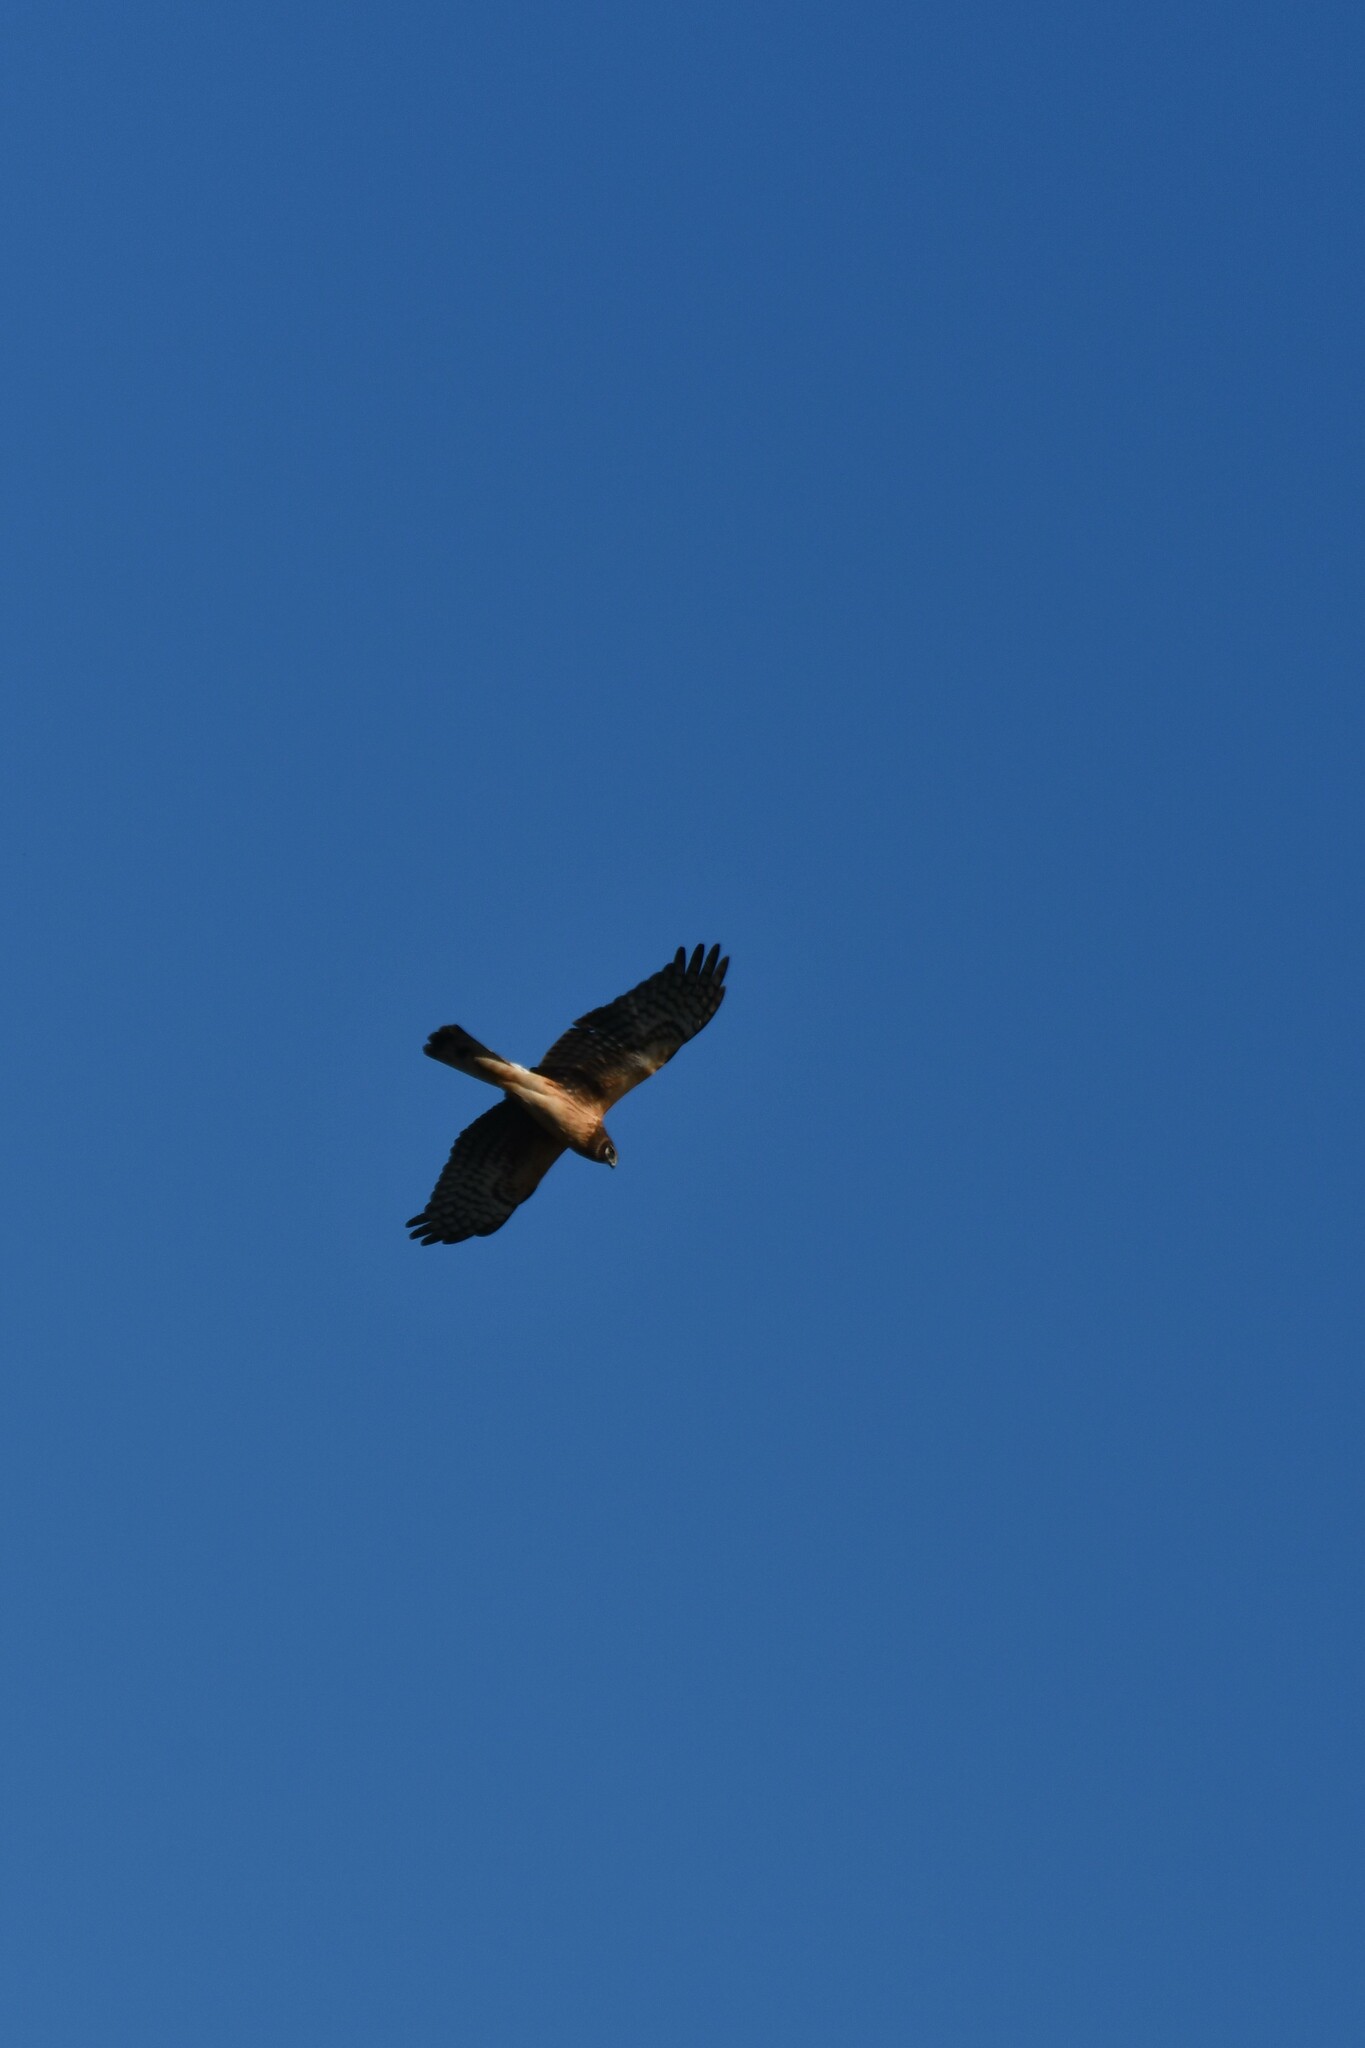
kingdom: Animalia
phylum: Chordata
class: Aves
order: Accipitriformes
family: Accipitridae
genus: Circus
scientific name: Circus cyaneus
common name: Hen harrier
